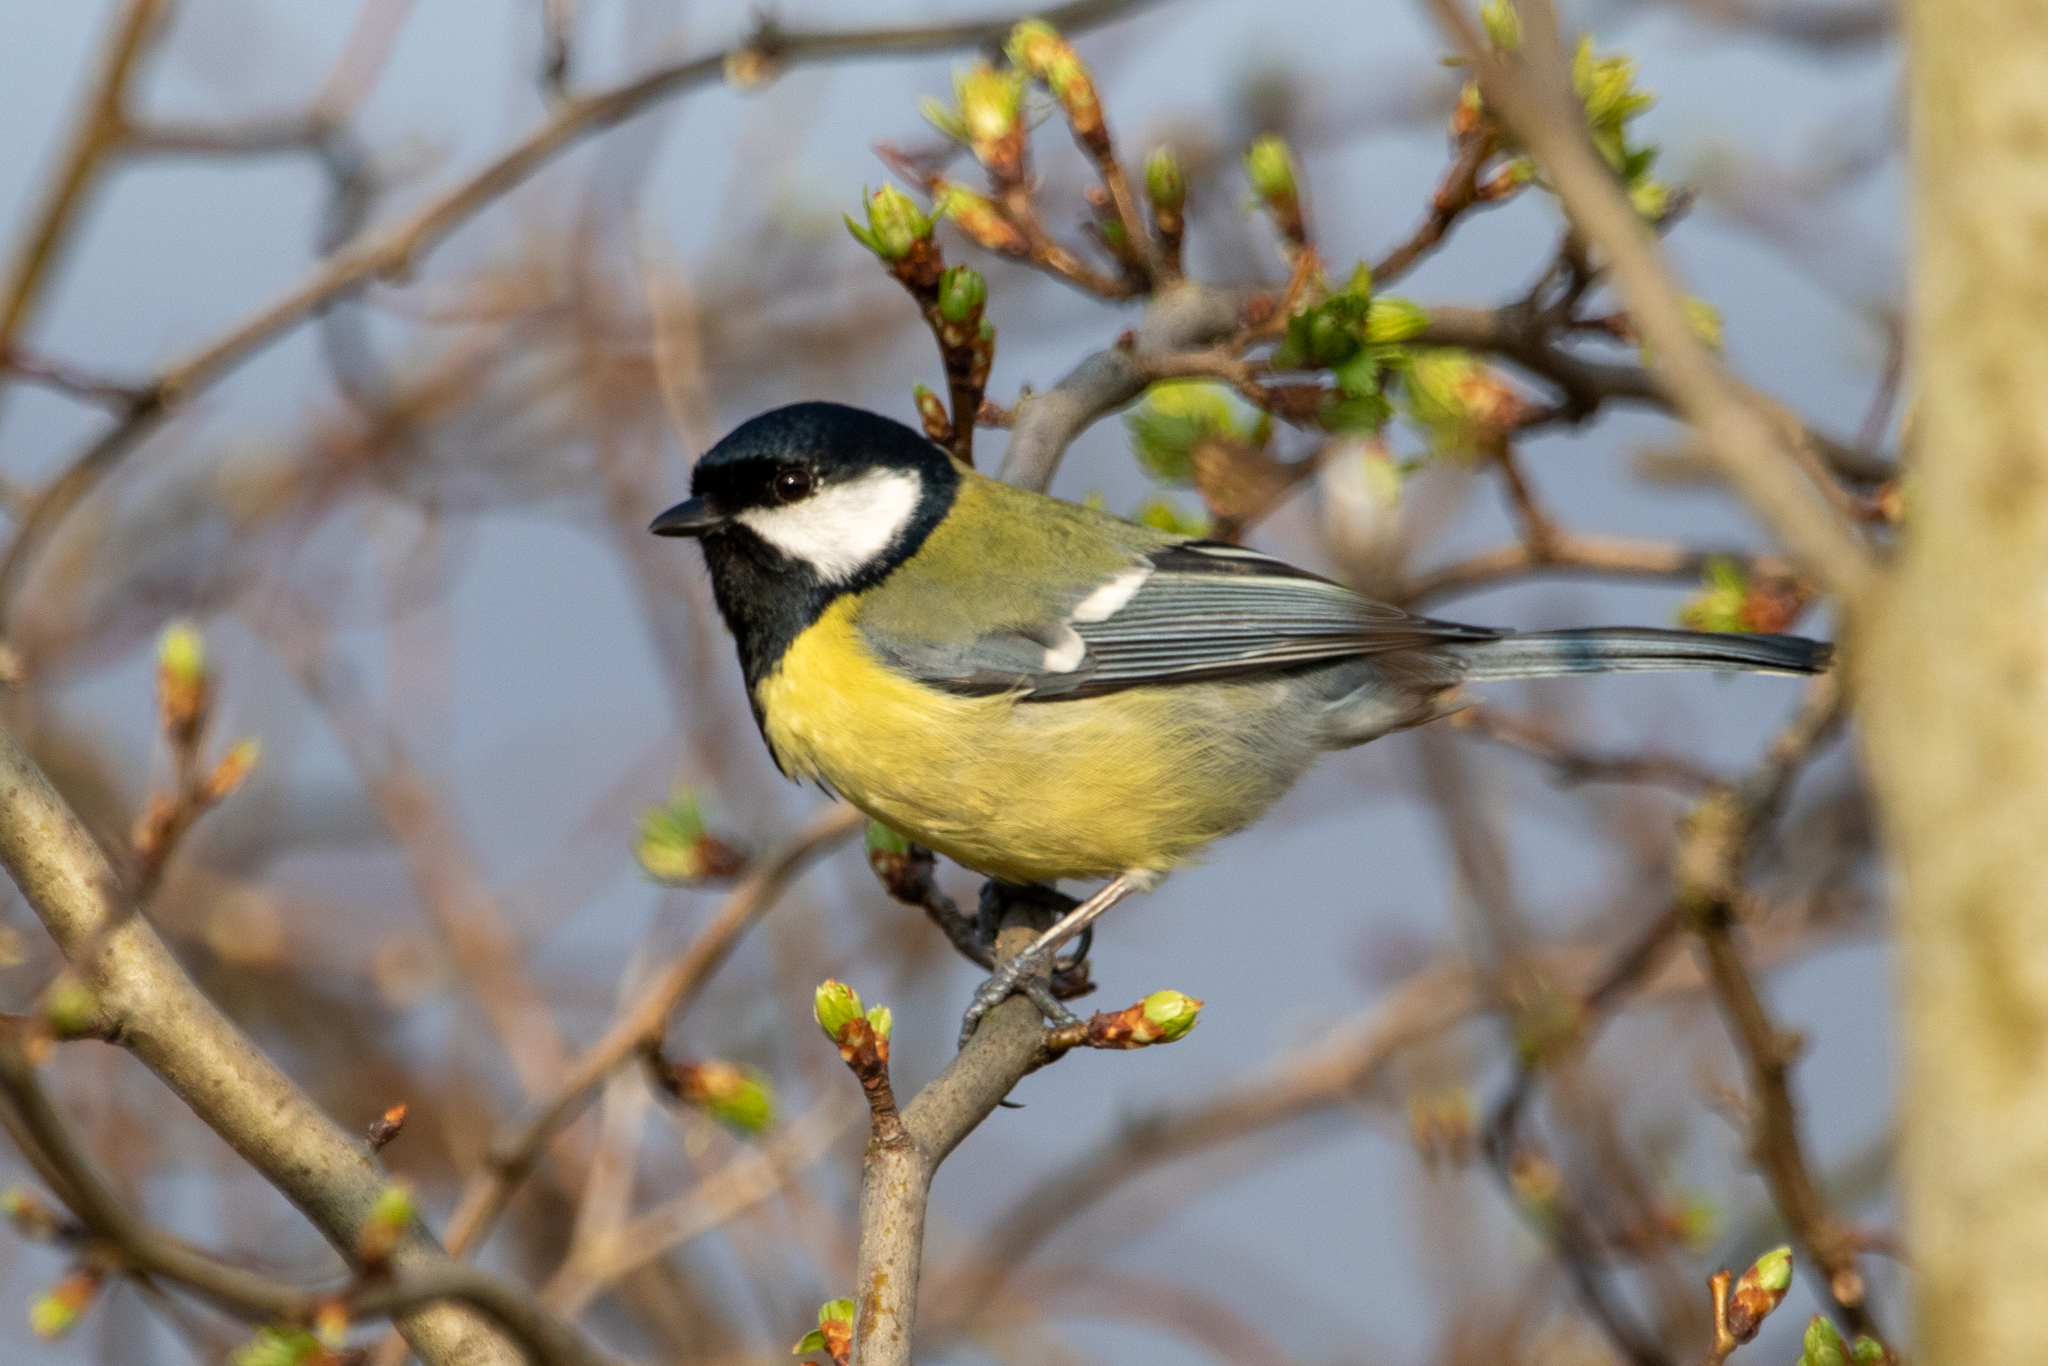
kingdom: Animalia
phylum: Chordata
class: Aves
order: Passeriformes
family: Paridae
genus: Parus
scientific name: Parus major
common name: Great tit
